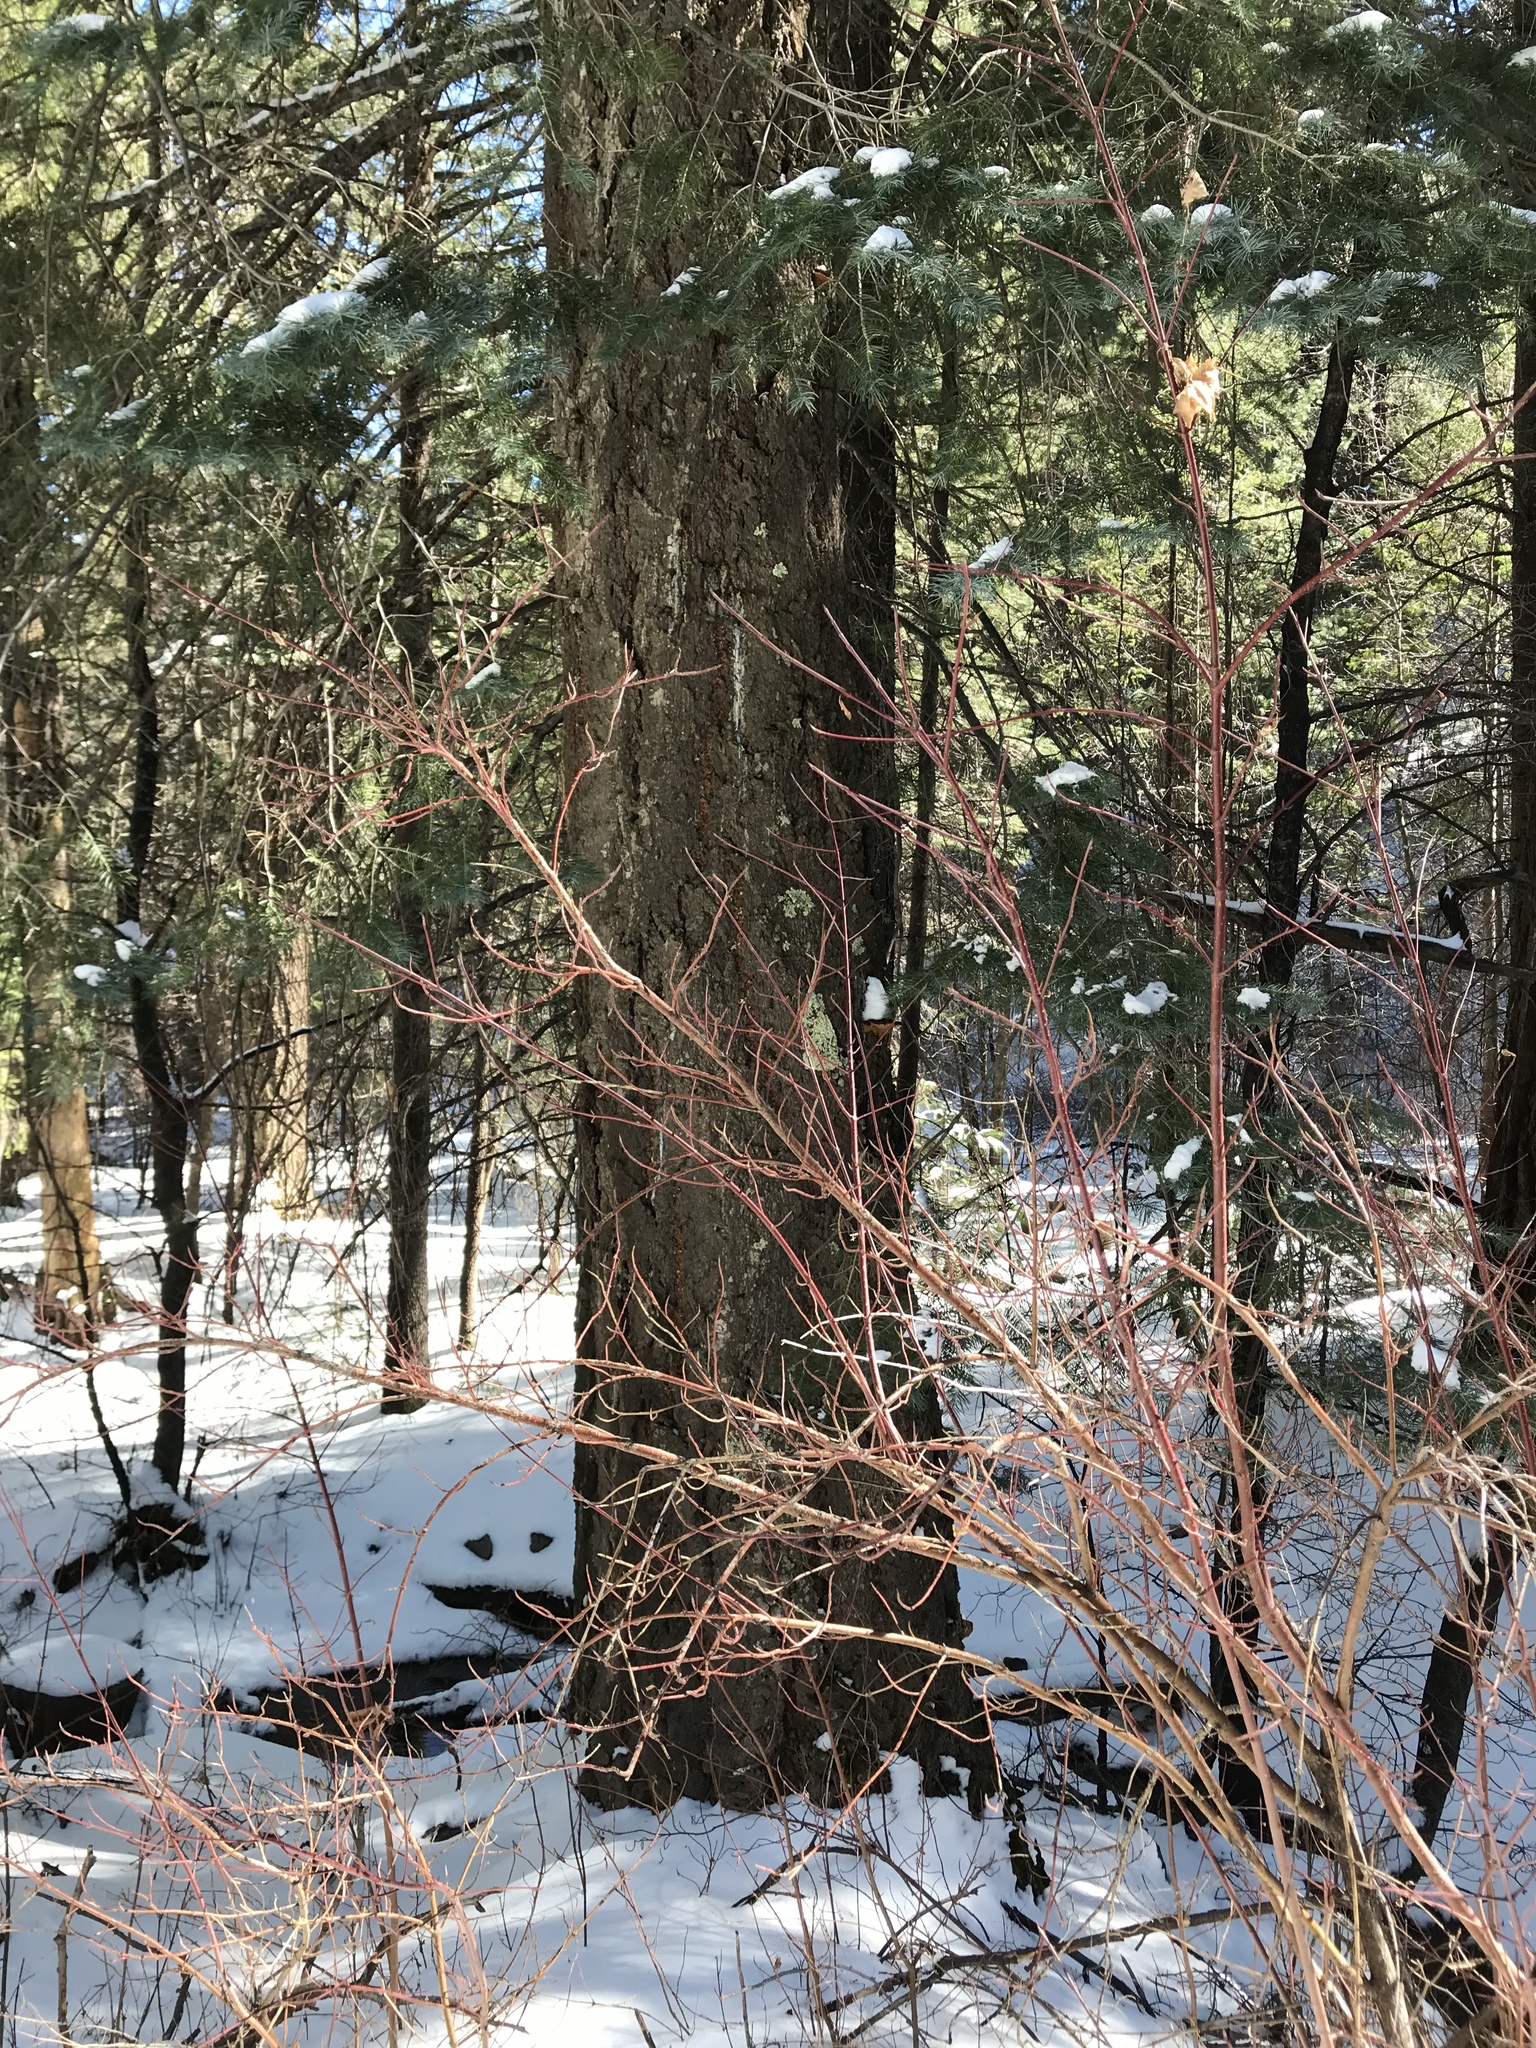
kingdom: Plantae
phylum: Tracheophyta
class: Pinopsida
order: Pinales
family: Pinaceae
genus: Pseudotsuga
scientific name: Pseudotsuga menziesii
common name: Douglas fir
